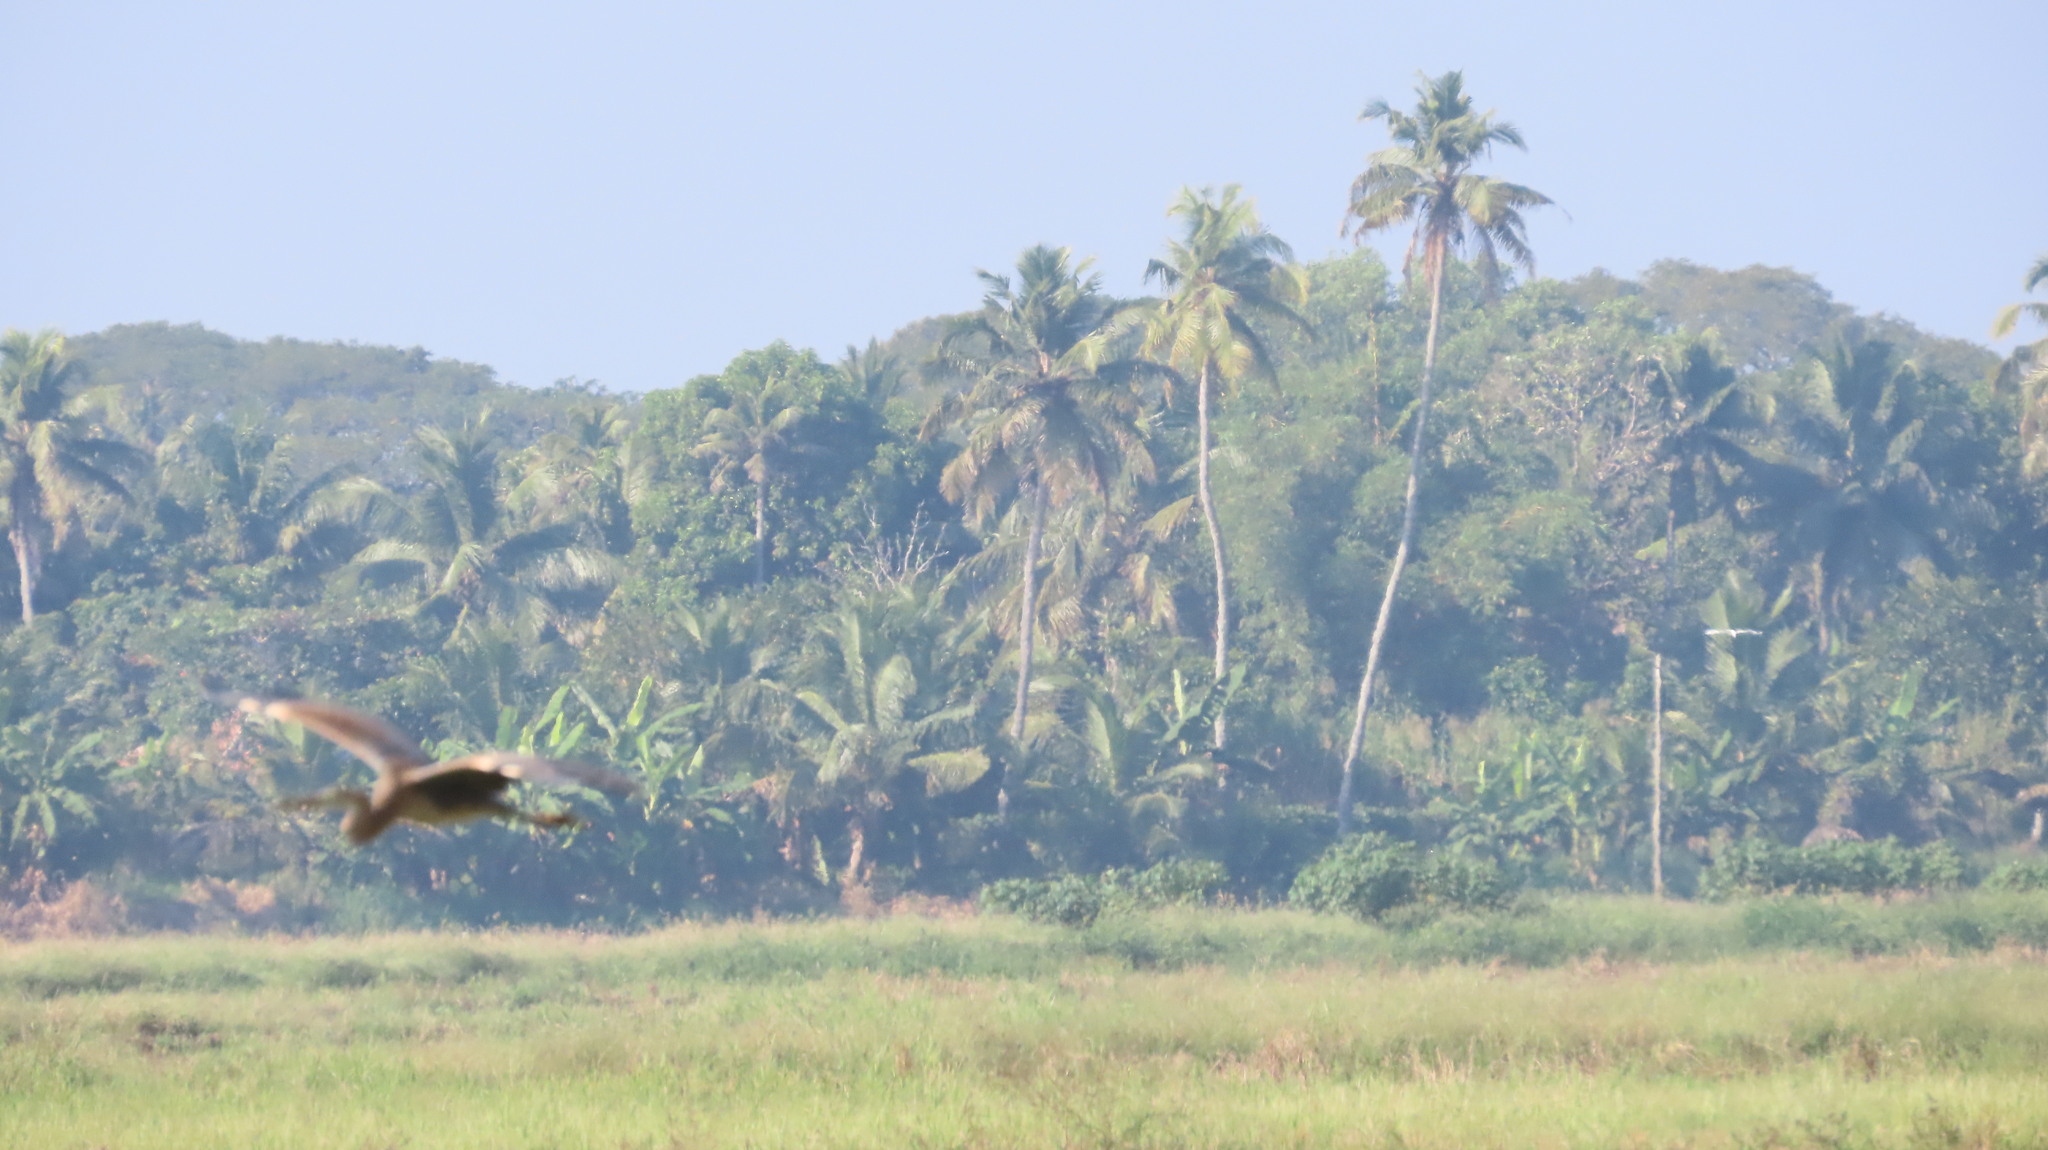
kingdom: Animalia
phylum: Chordata
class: Aves
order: Pelecaniformes
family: Ardeidae
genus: Ardea
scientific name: Ardea purpurea
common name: Purple heron
